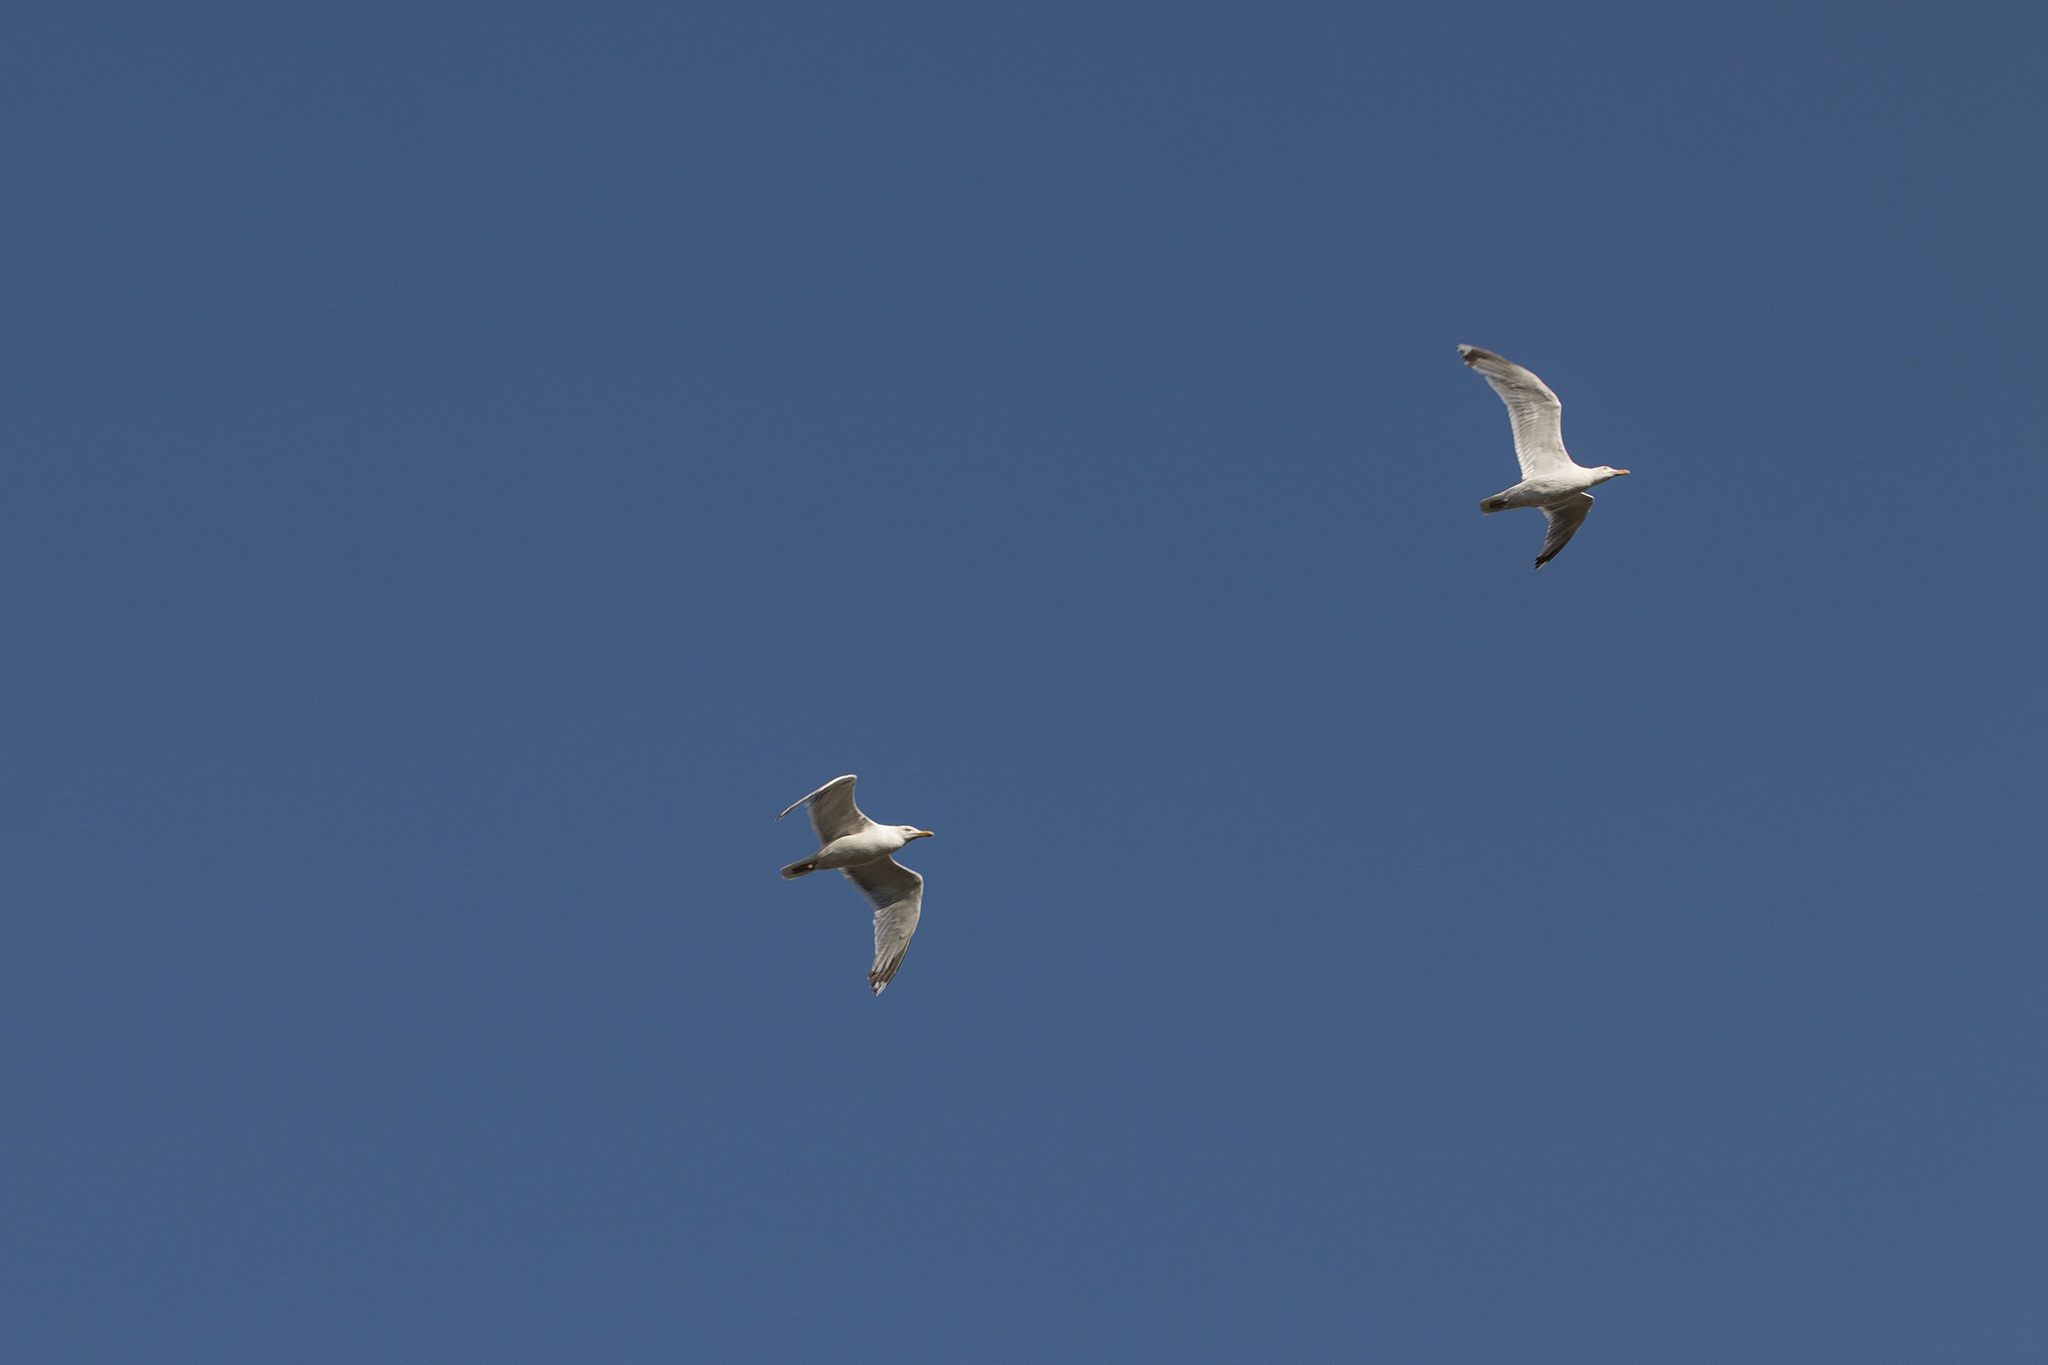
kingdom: Animalia
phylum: Chordata
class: Aves
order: Charadriiformes
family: Laridae
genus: Larus
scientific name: Larus argentatus
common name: Herring gull
